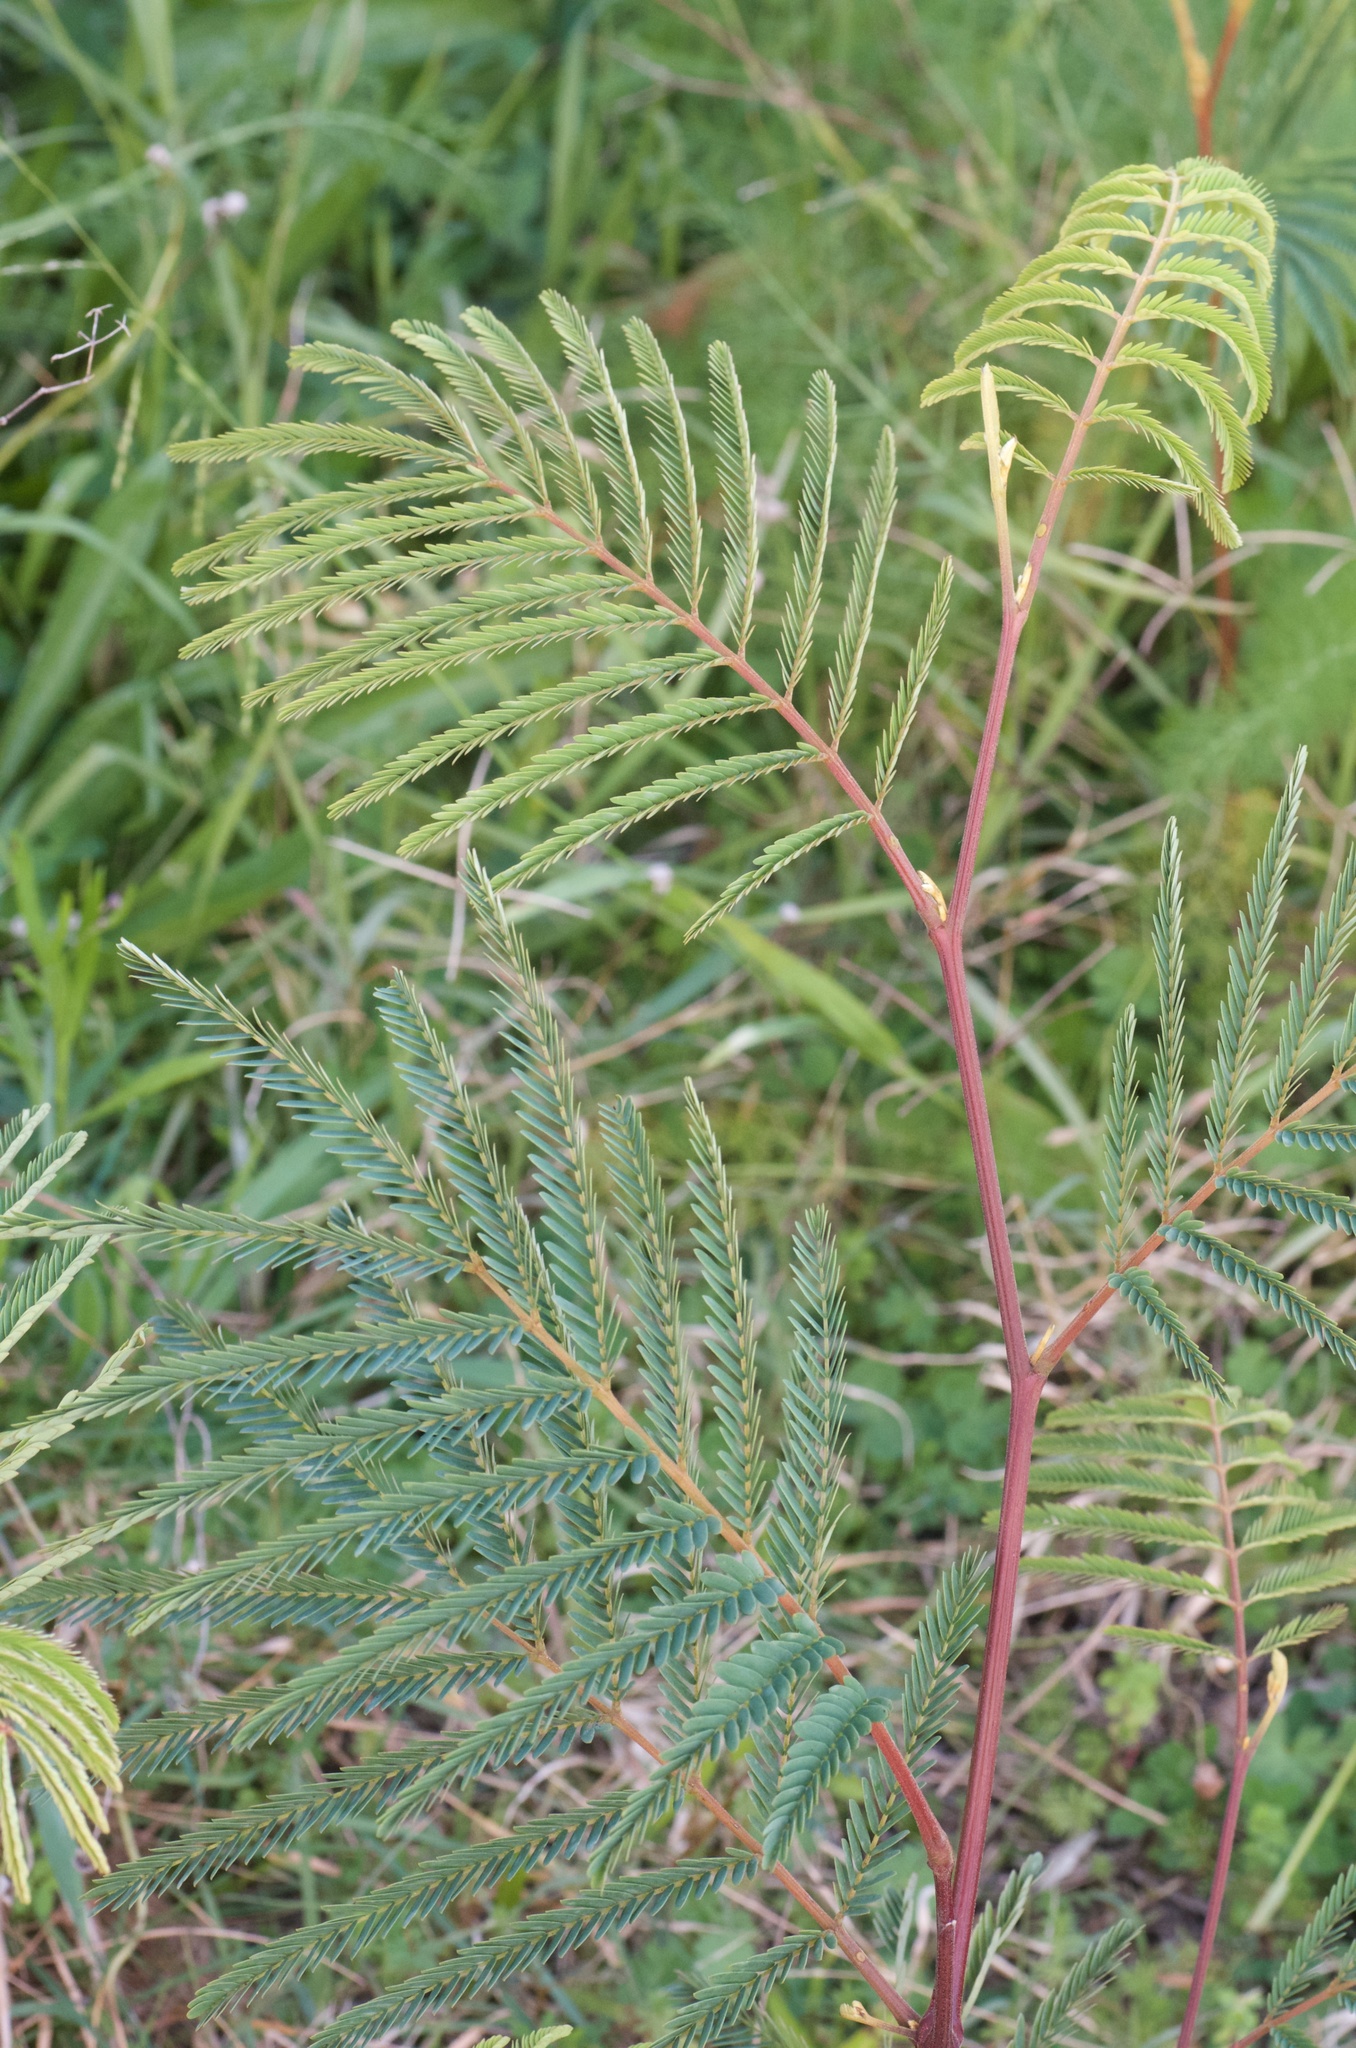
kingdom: Plantae
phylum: Tracheophyta
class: Magnoliopsida
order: Fabales
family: Fabaceae
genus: Paraserianthes
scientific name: Paraserianthes lophantha
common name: Plume albizia
